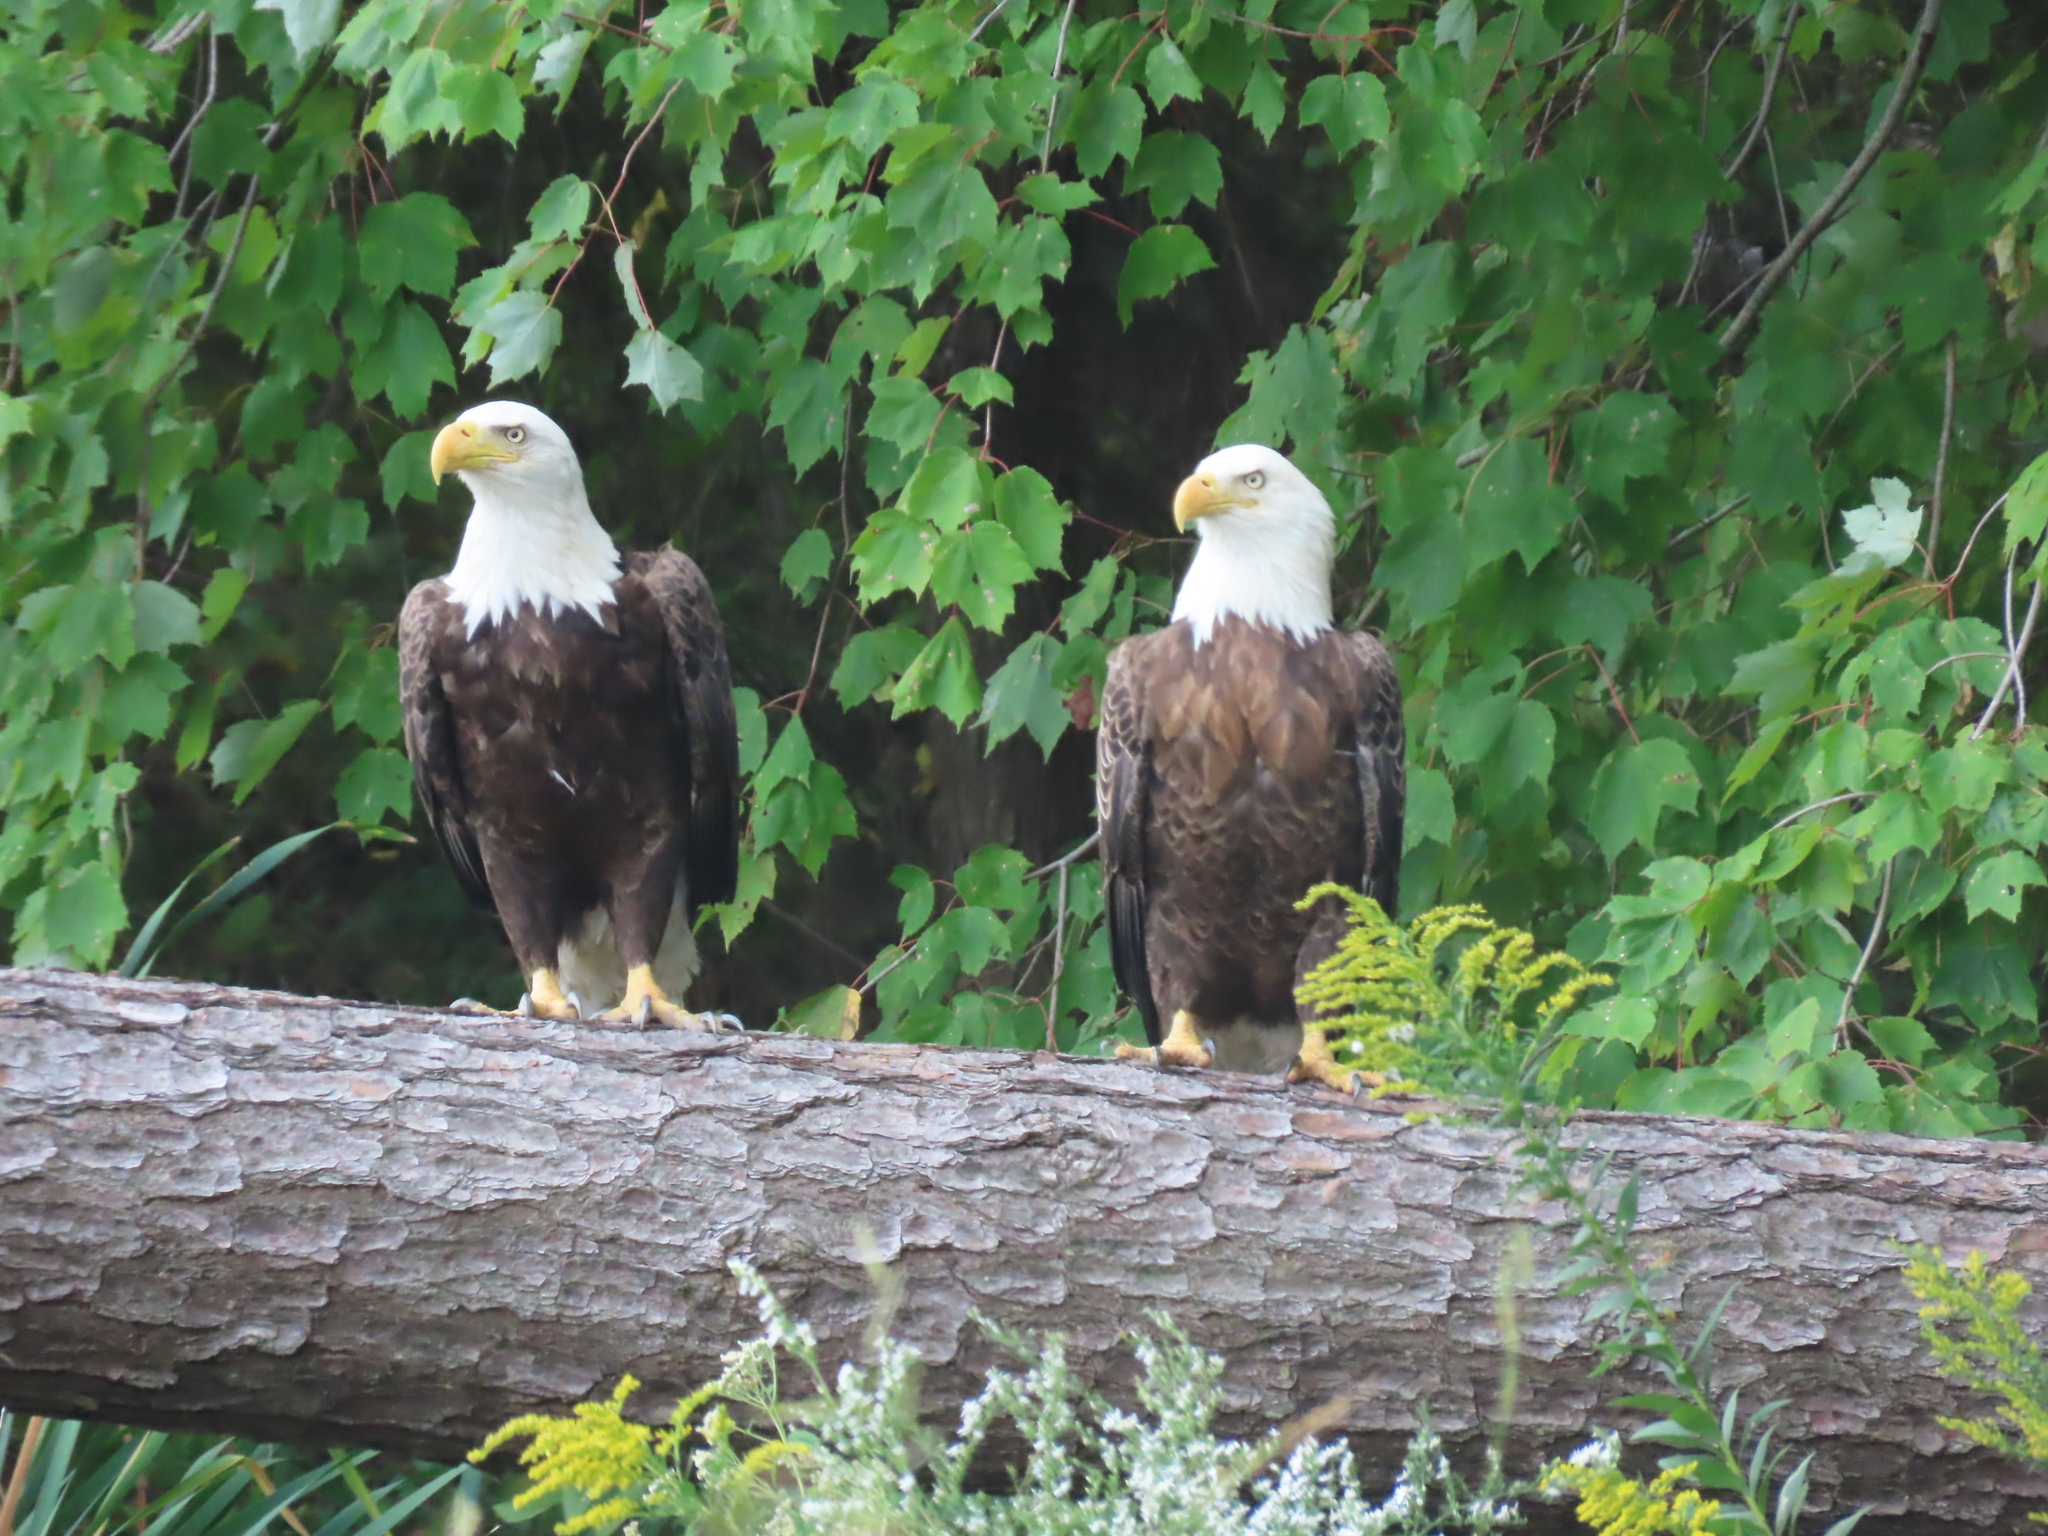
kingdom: Animalia
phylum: Chordata
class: Aves
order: Accipitriformes
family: Accipitridae
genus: Haliaeetus
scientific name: Haliaeetus leucocephalus
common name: Bald eagle
